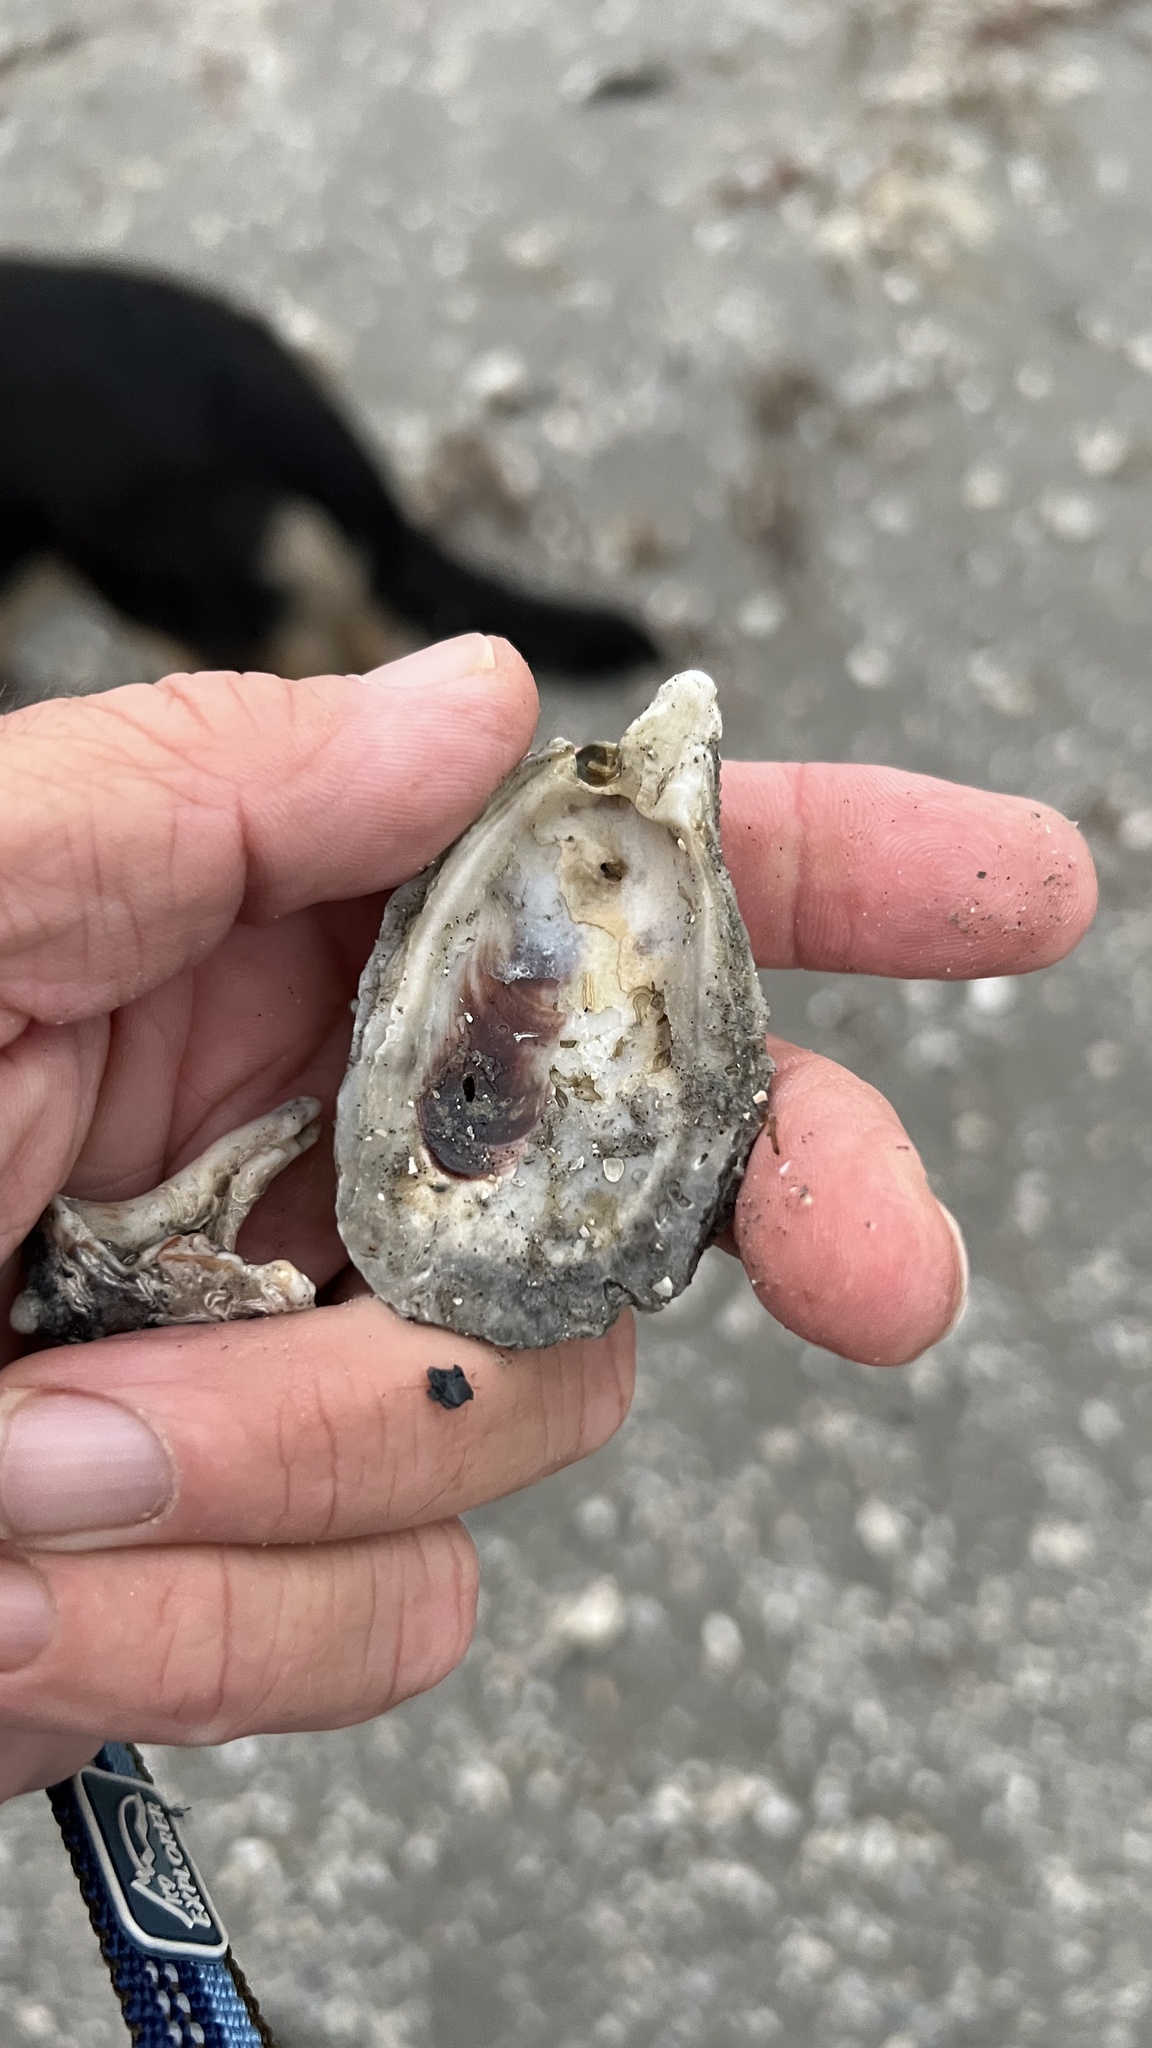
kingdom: Animalia
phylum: Mollusca
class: Bivalvia
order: Ostreida
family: Ostreidae
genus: Crassostrea
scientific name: Crassostrea virginica
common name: American oyster
